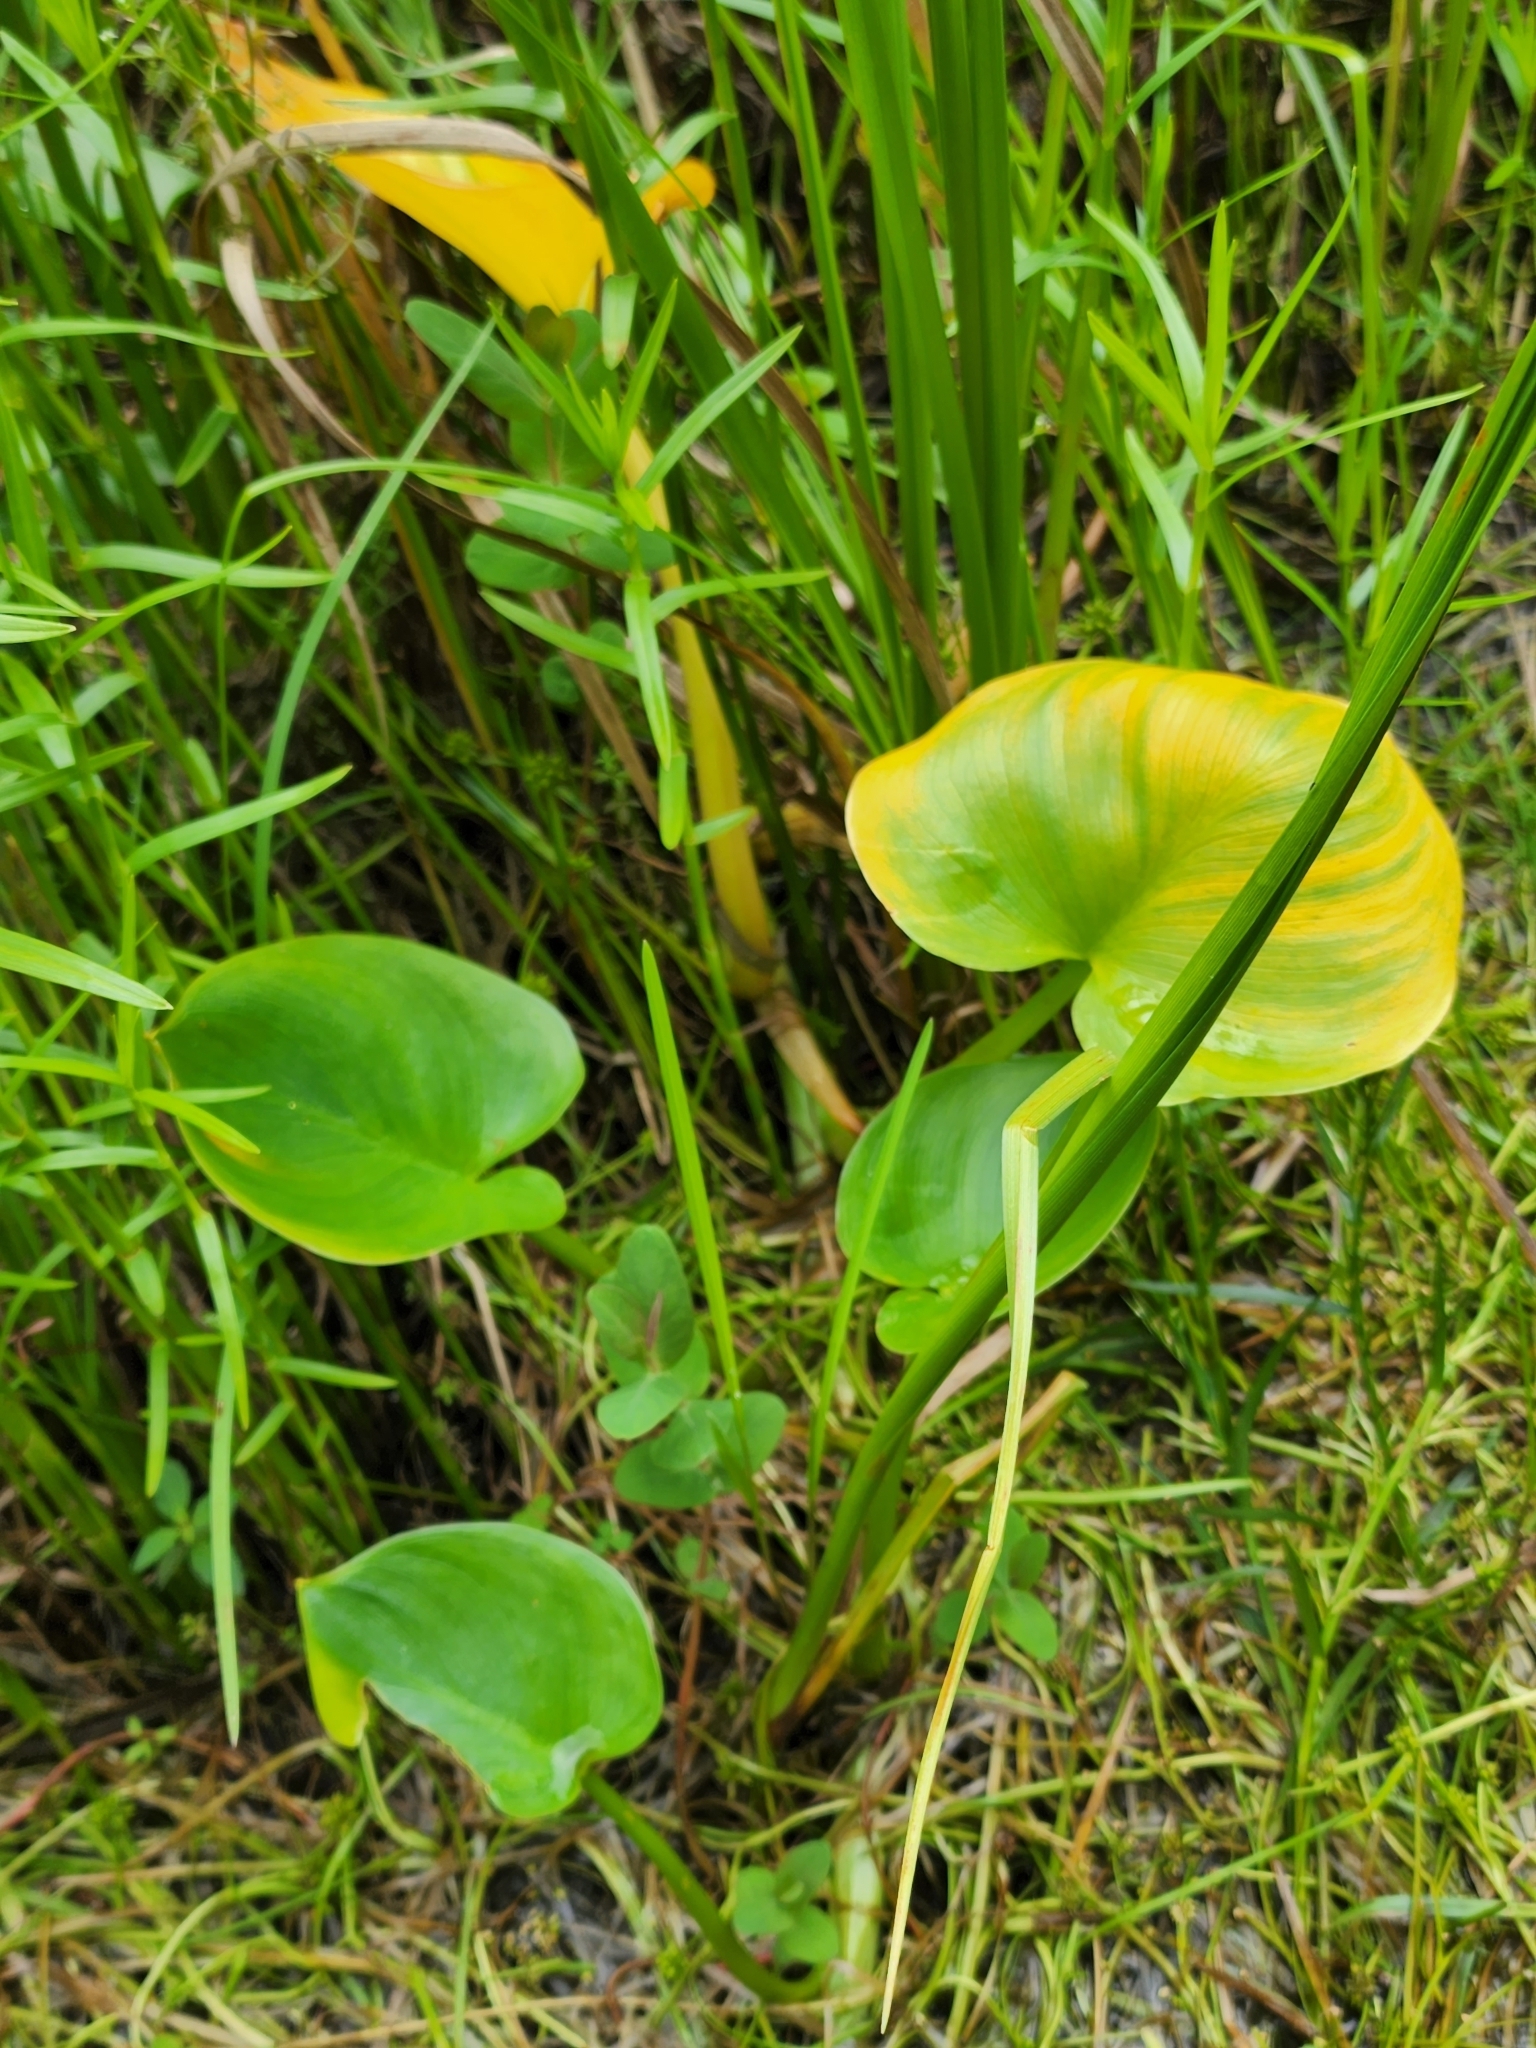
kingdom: Plantae
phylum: Tracheophyta
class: Liliopsida
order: Alismatales
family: Araceae
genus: Calla
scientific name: Calla palustris
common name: Bog arum
